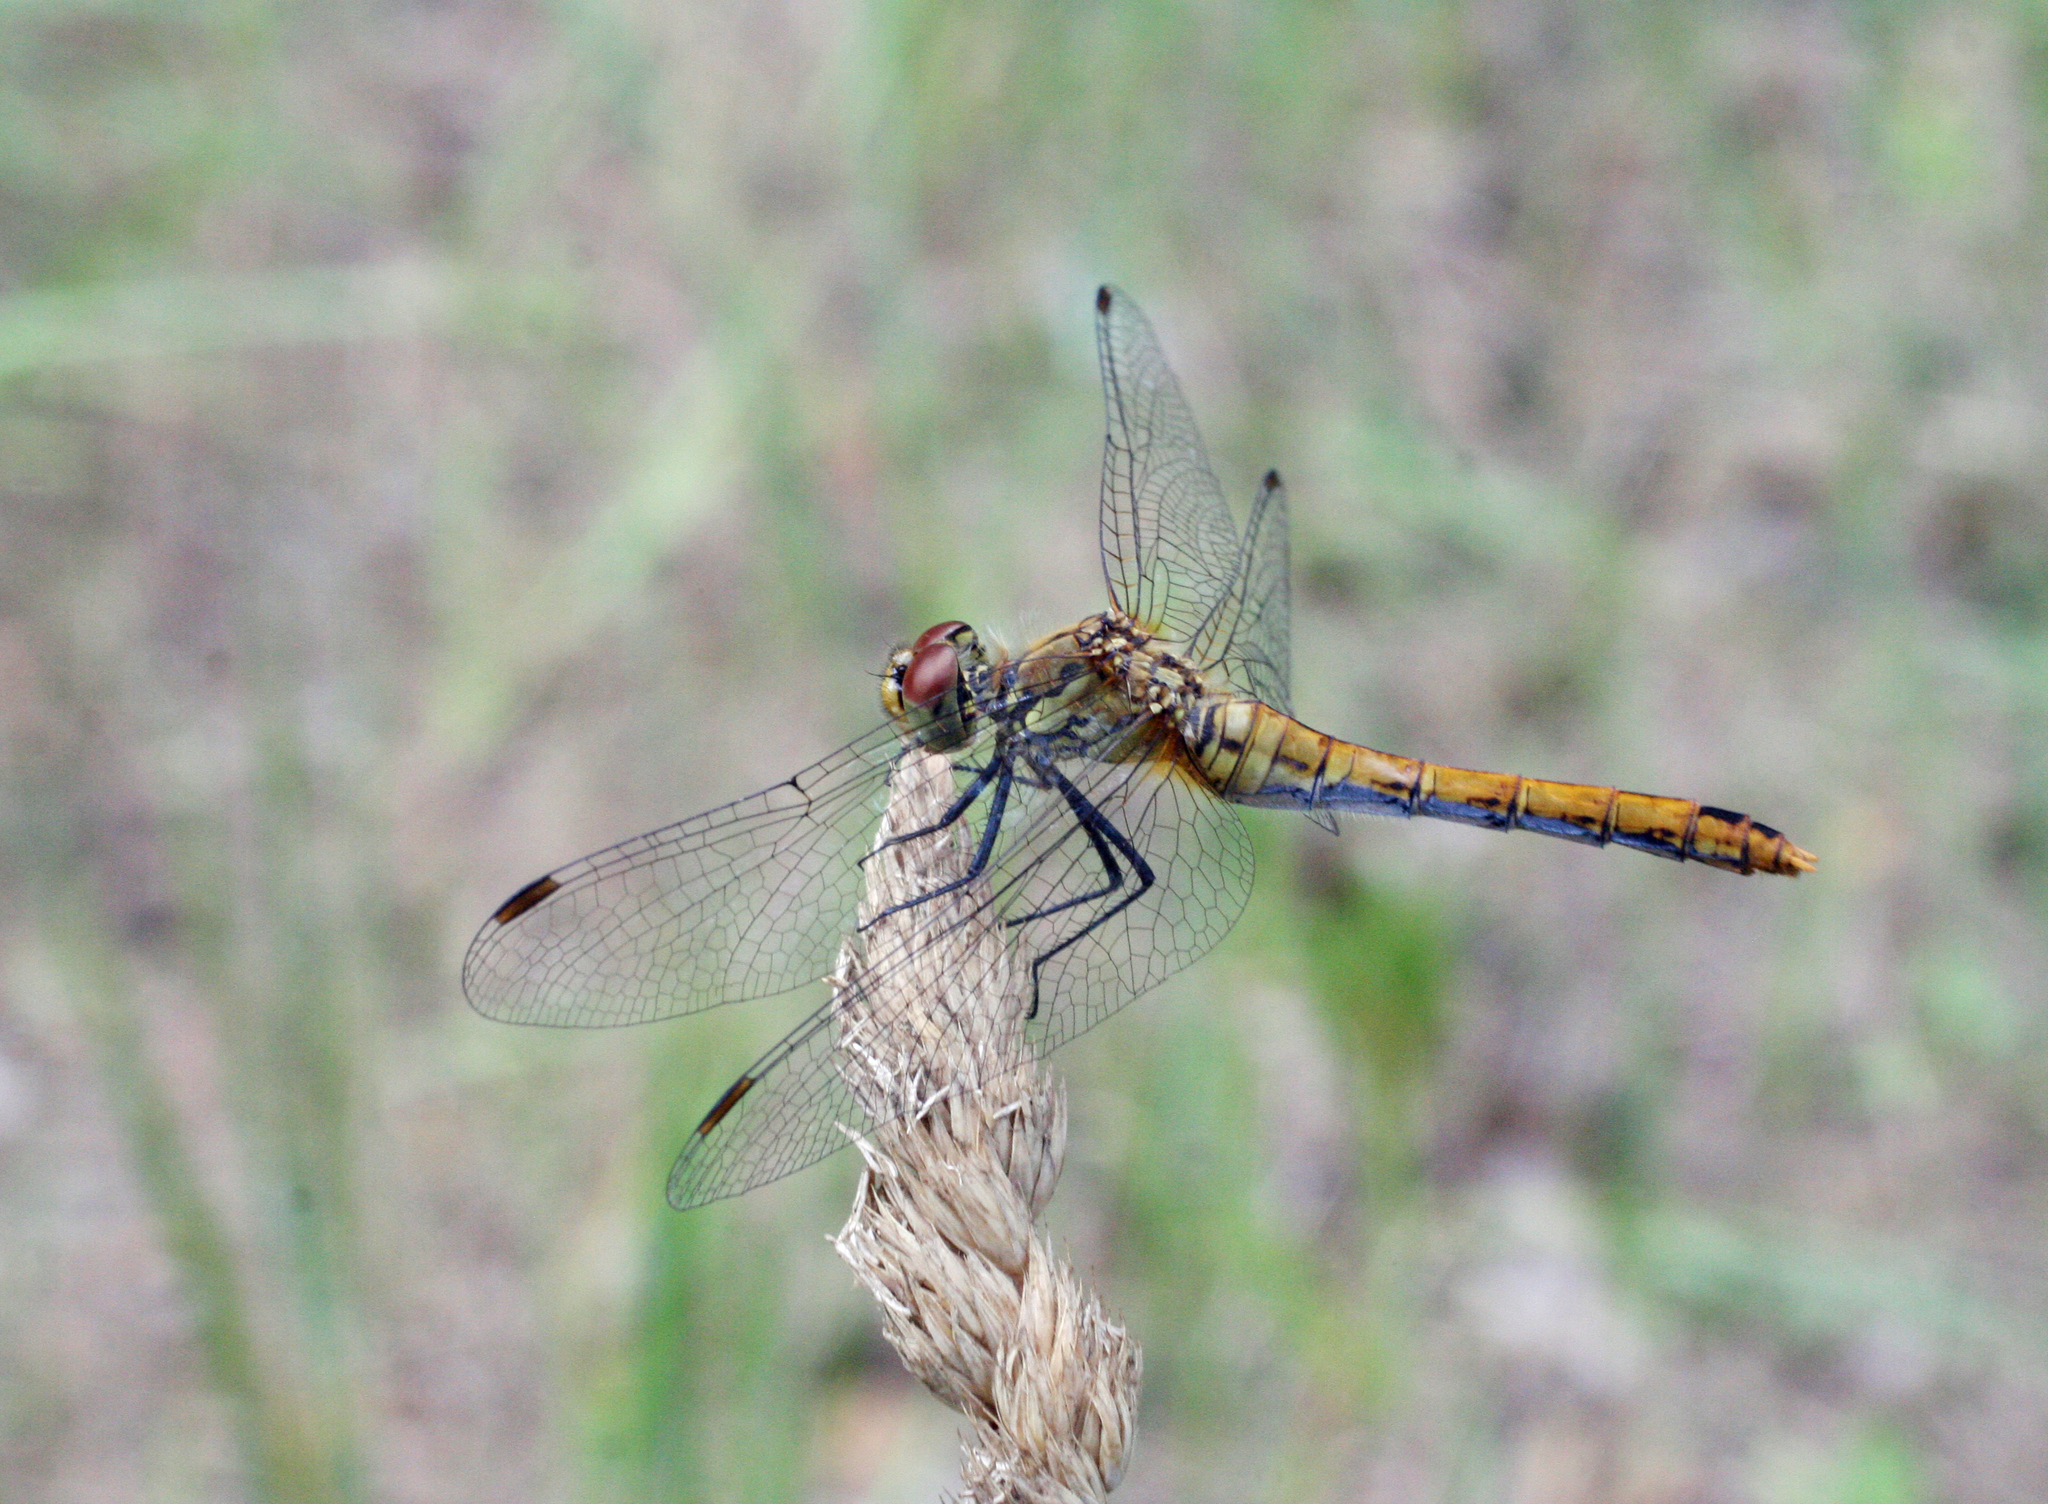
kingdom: Animalia
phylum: Arthropoda
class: Insecta
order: Odonata
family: Libellulidae
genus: Sympetrum
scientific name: Sympetrum sanguineum
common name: Ruddy darter
